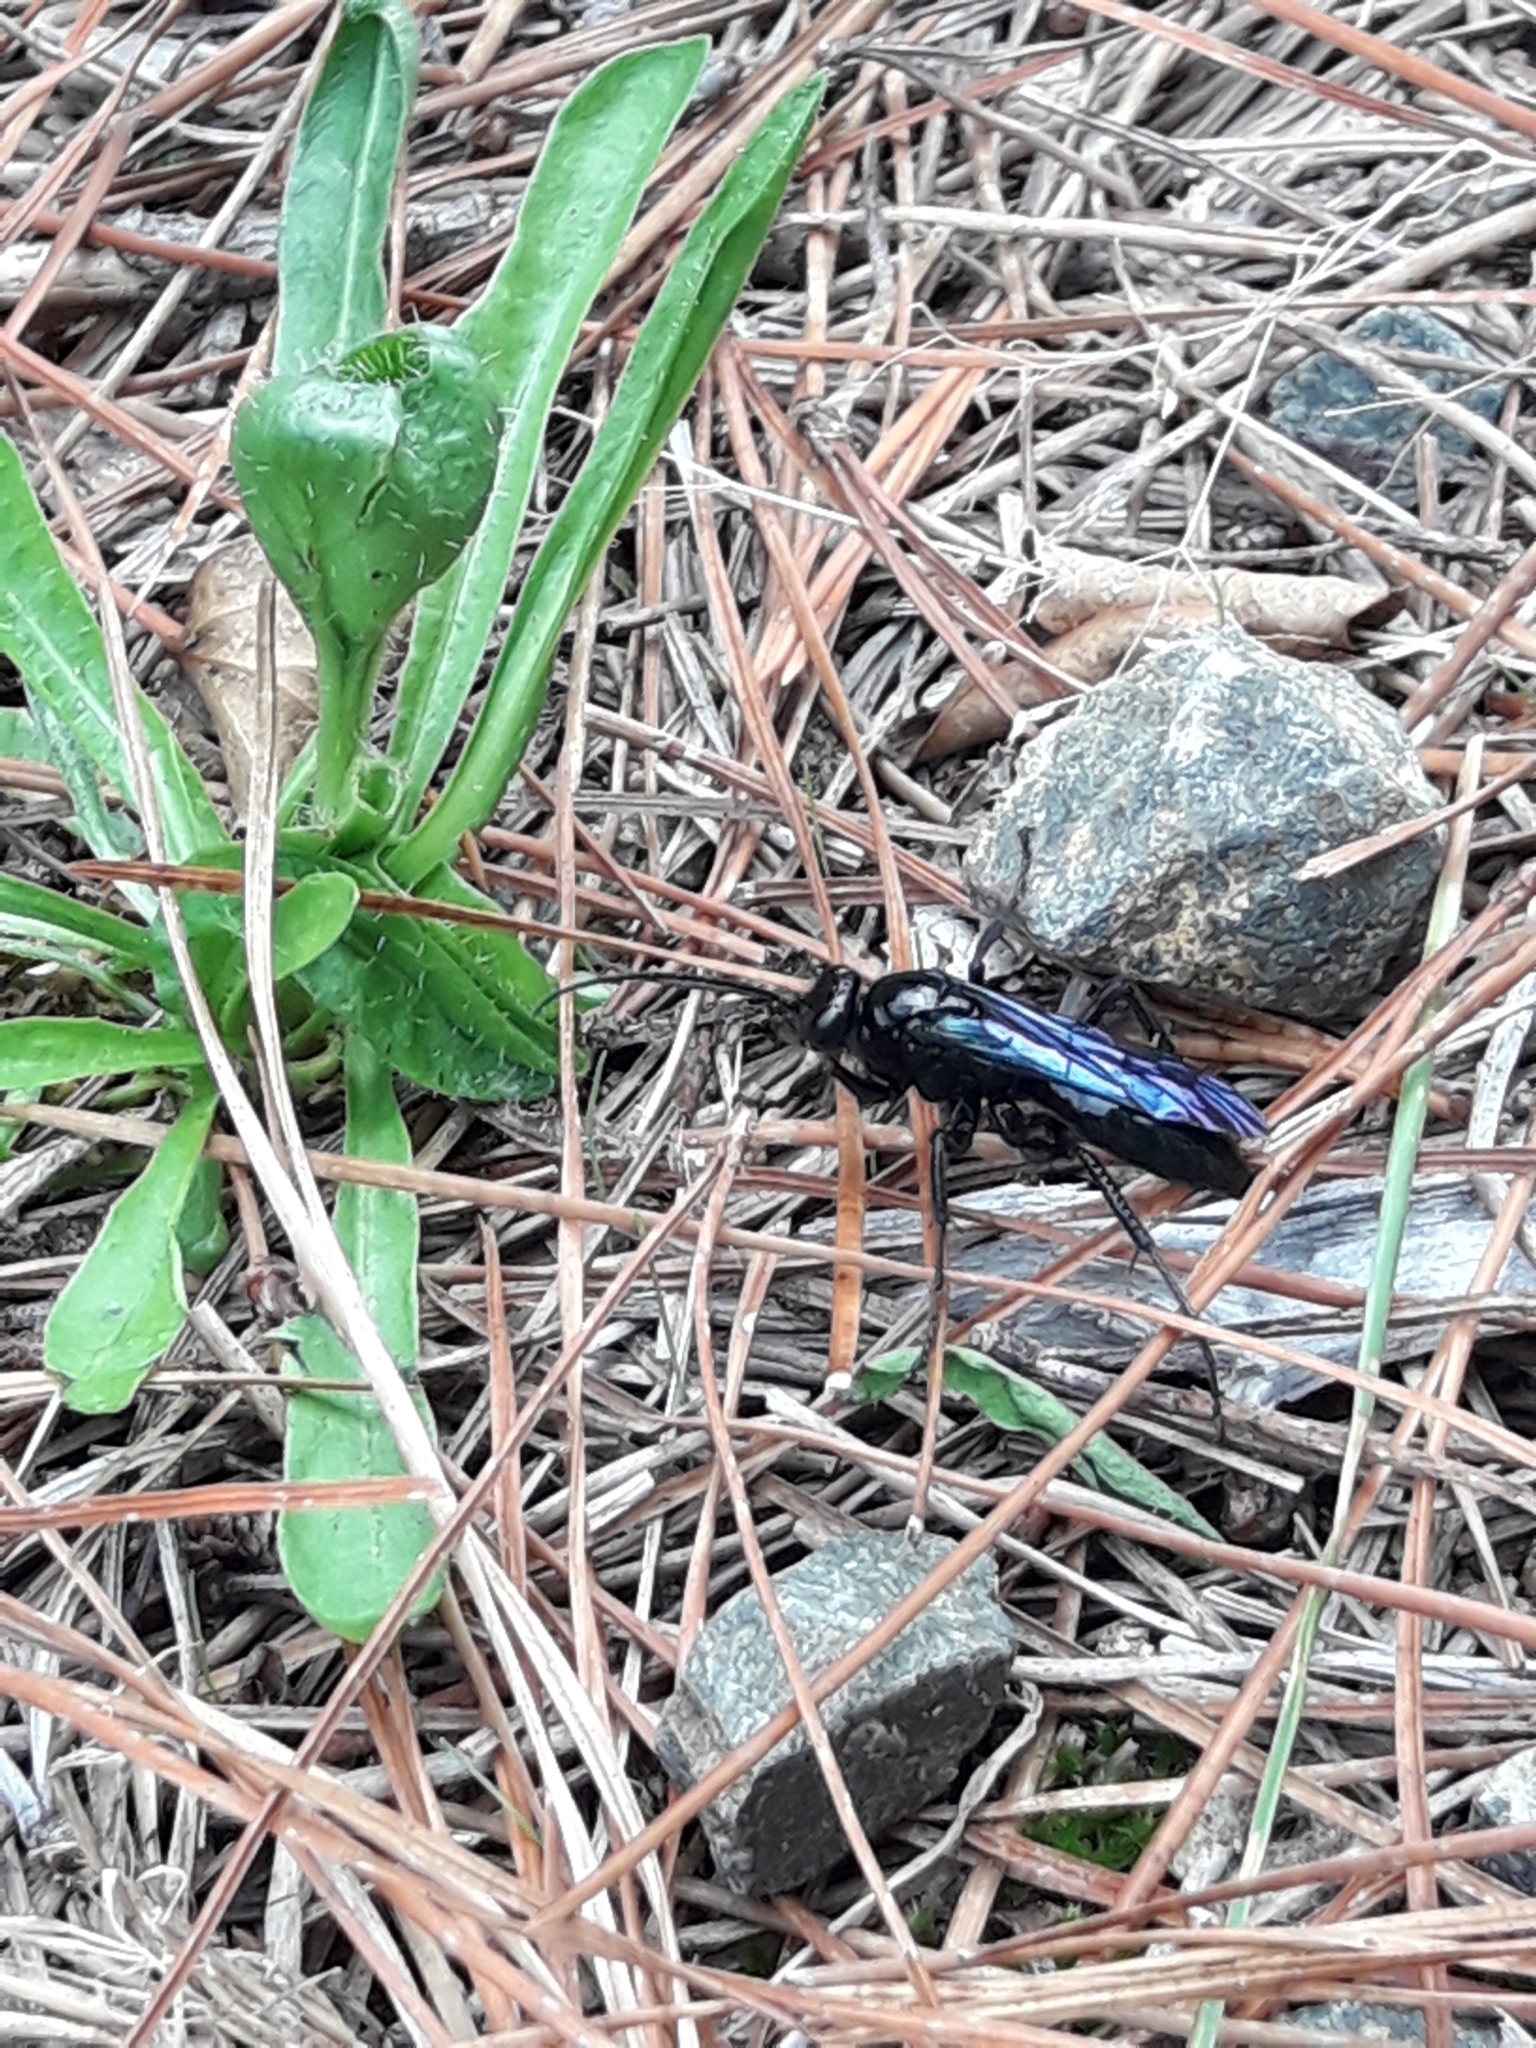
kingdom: Animalia
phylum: Arthropoda
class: Insecta
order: Hymenoptera
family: Pompilidae
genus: Priocnemis
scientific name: Priocnemis monachus
